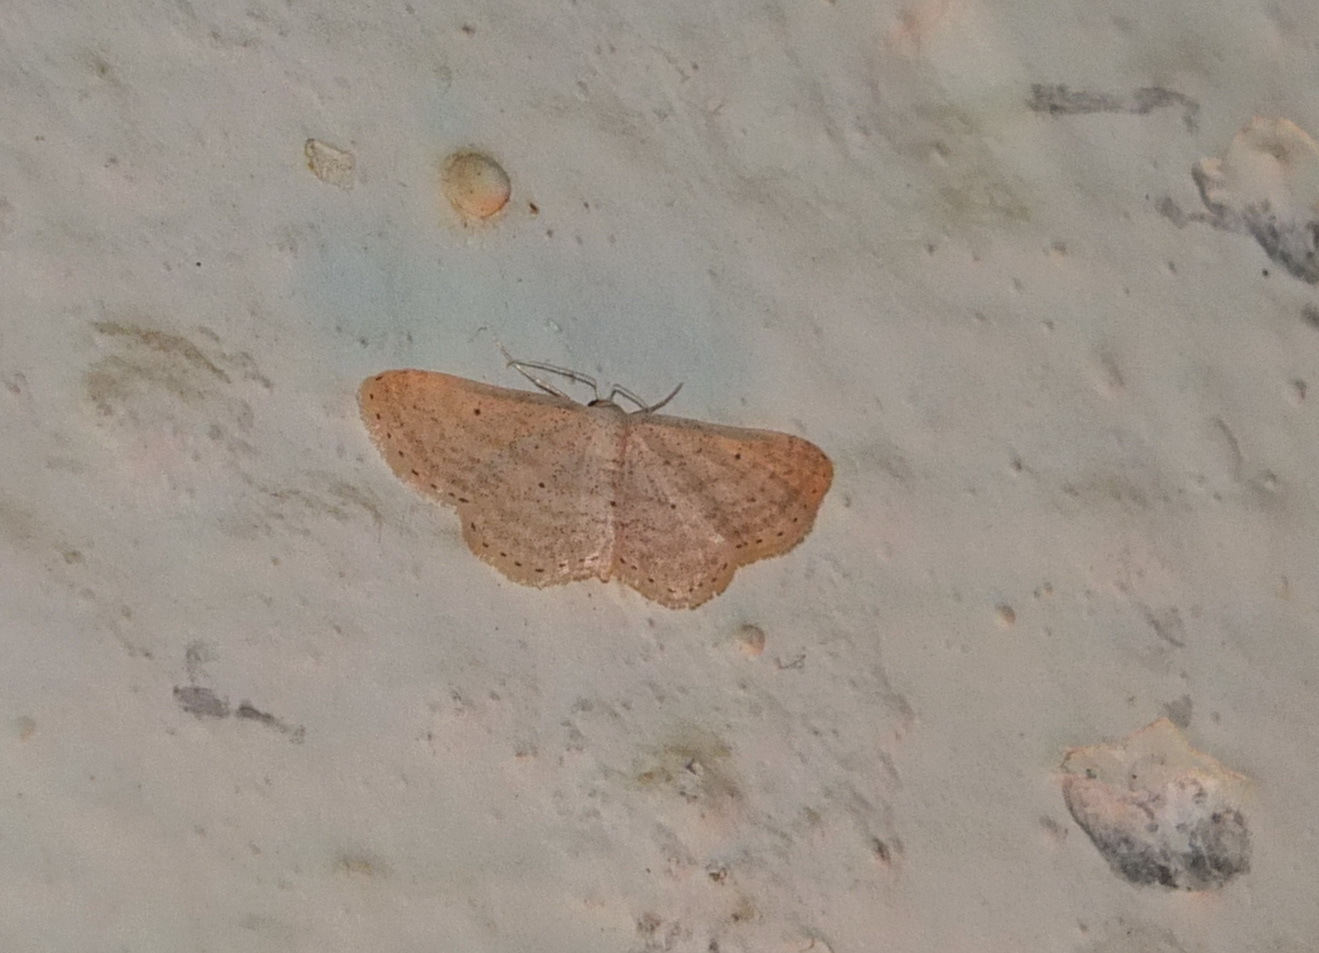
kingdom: Animalia
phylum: Arthropoda
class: Insecta
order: Lepidoptera
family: Geometridae
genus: Idaea
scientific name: Idaea elongaria
